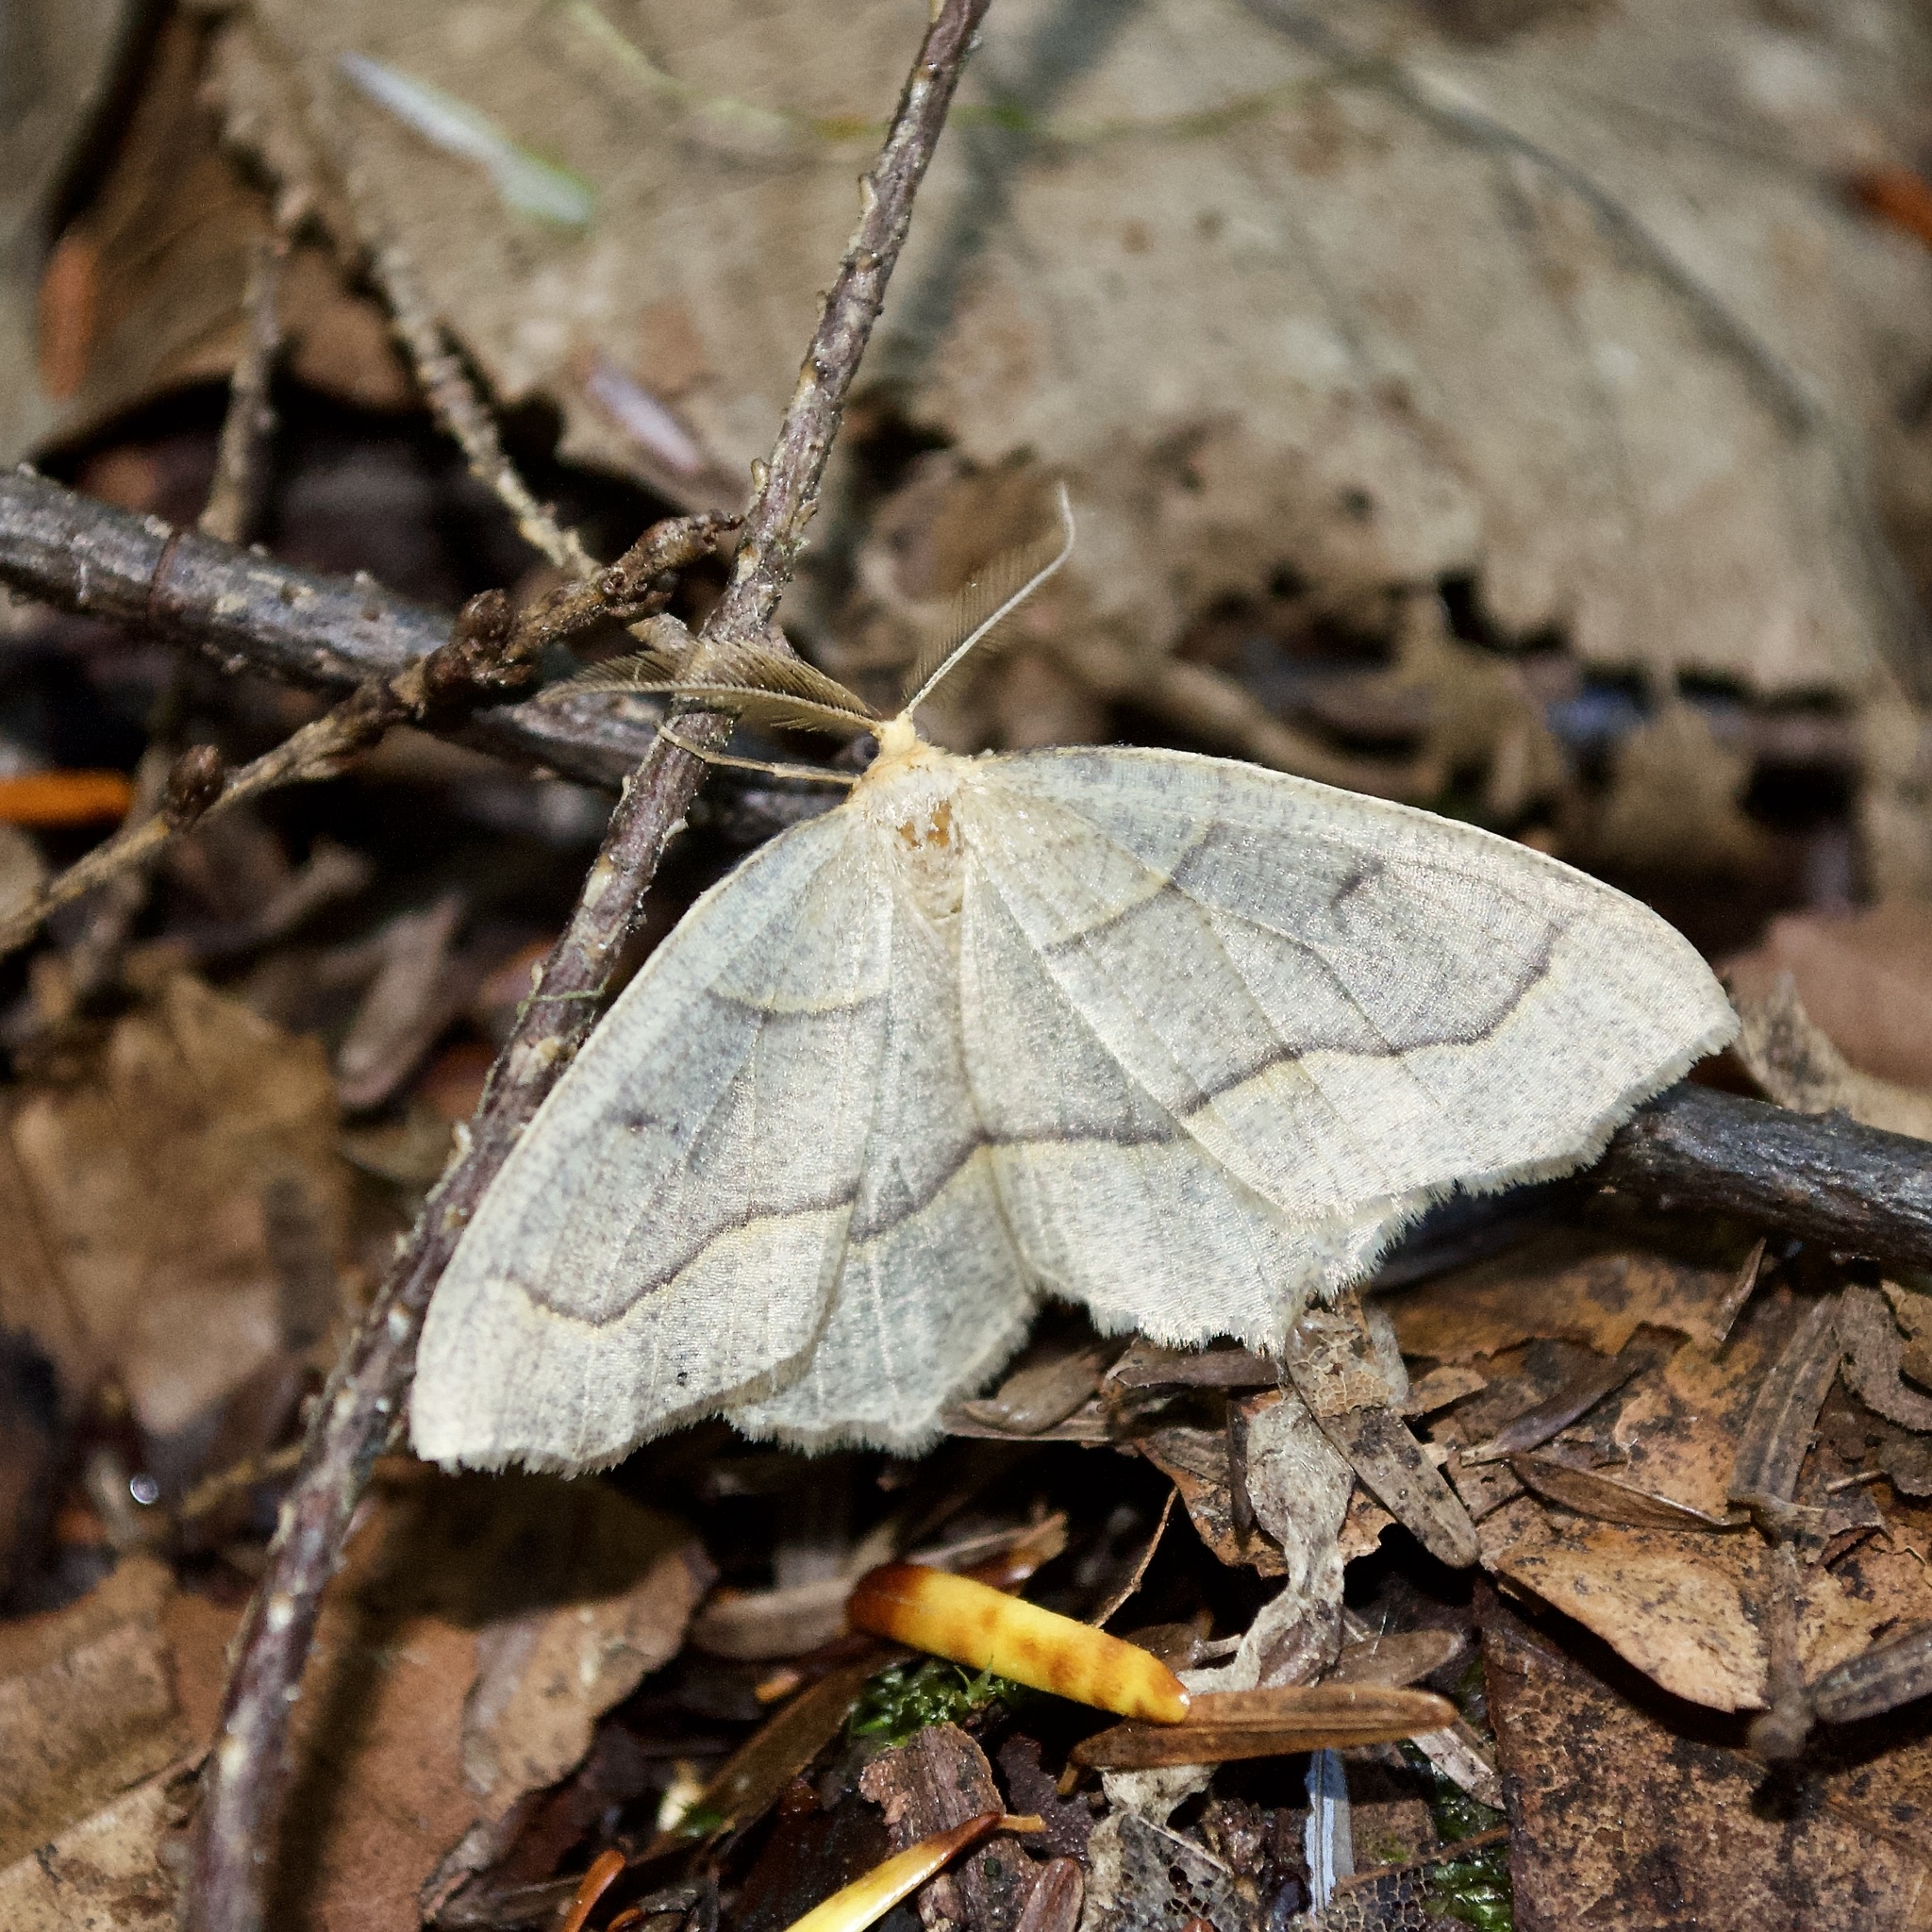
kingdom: Animalia
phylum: Arthropoda
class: Insecta
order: Lepidoptera
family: Geometridae
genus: Lambdina
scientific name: Lambdina fiscellaria
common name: Hemlock looper
